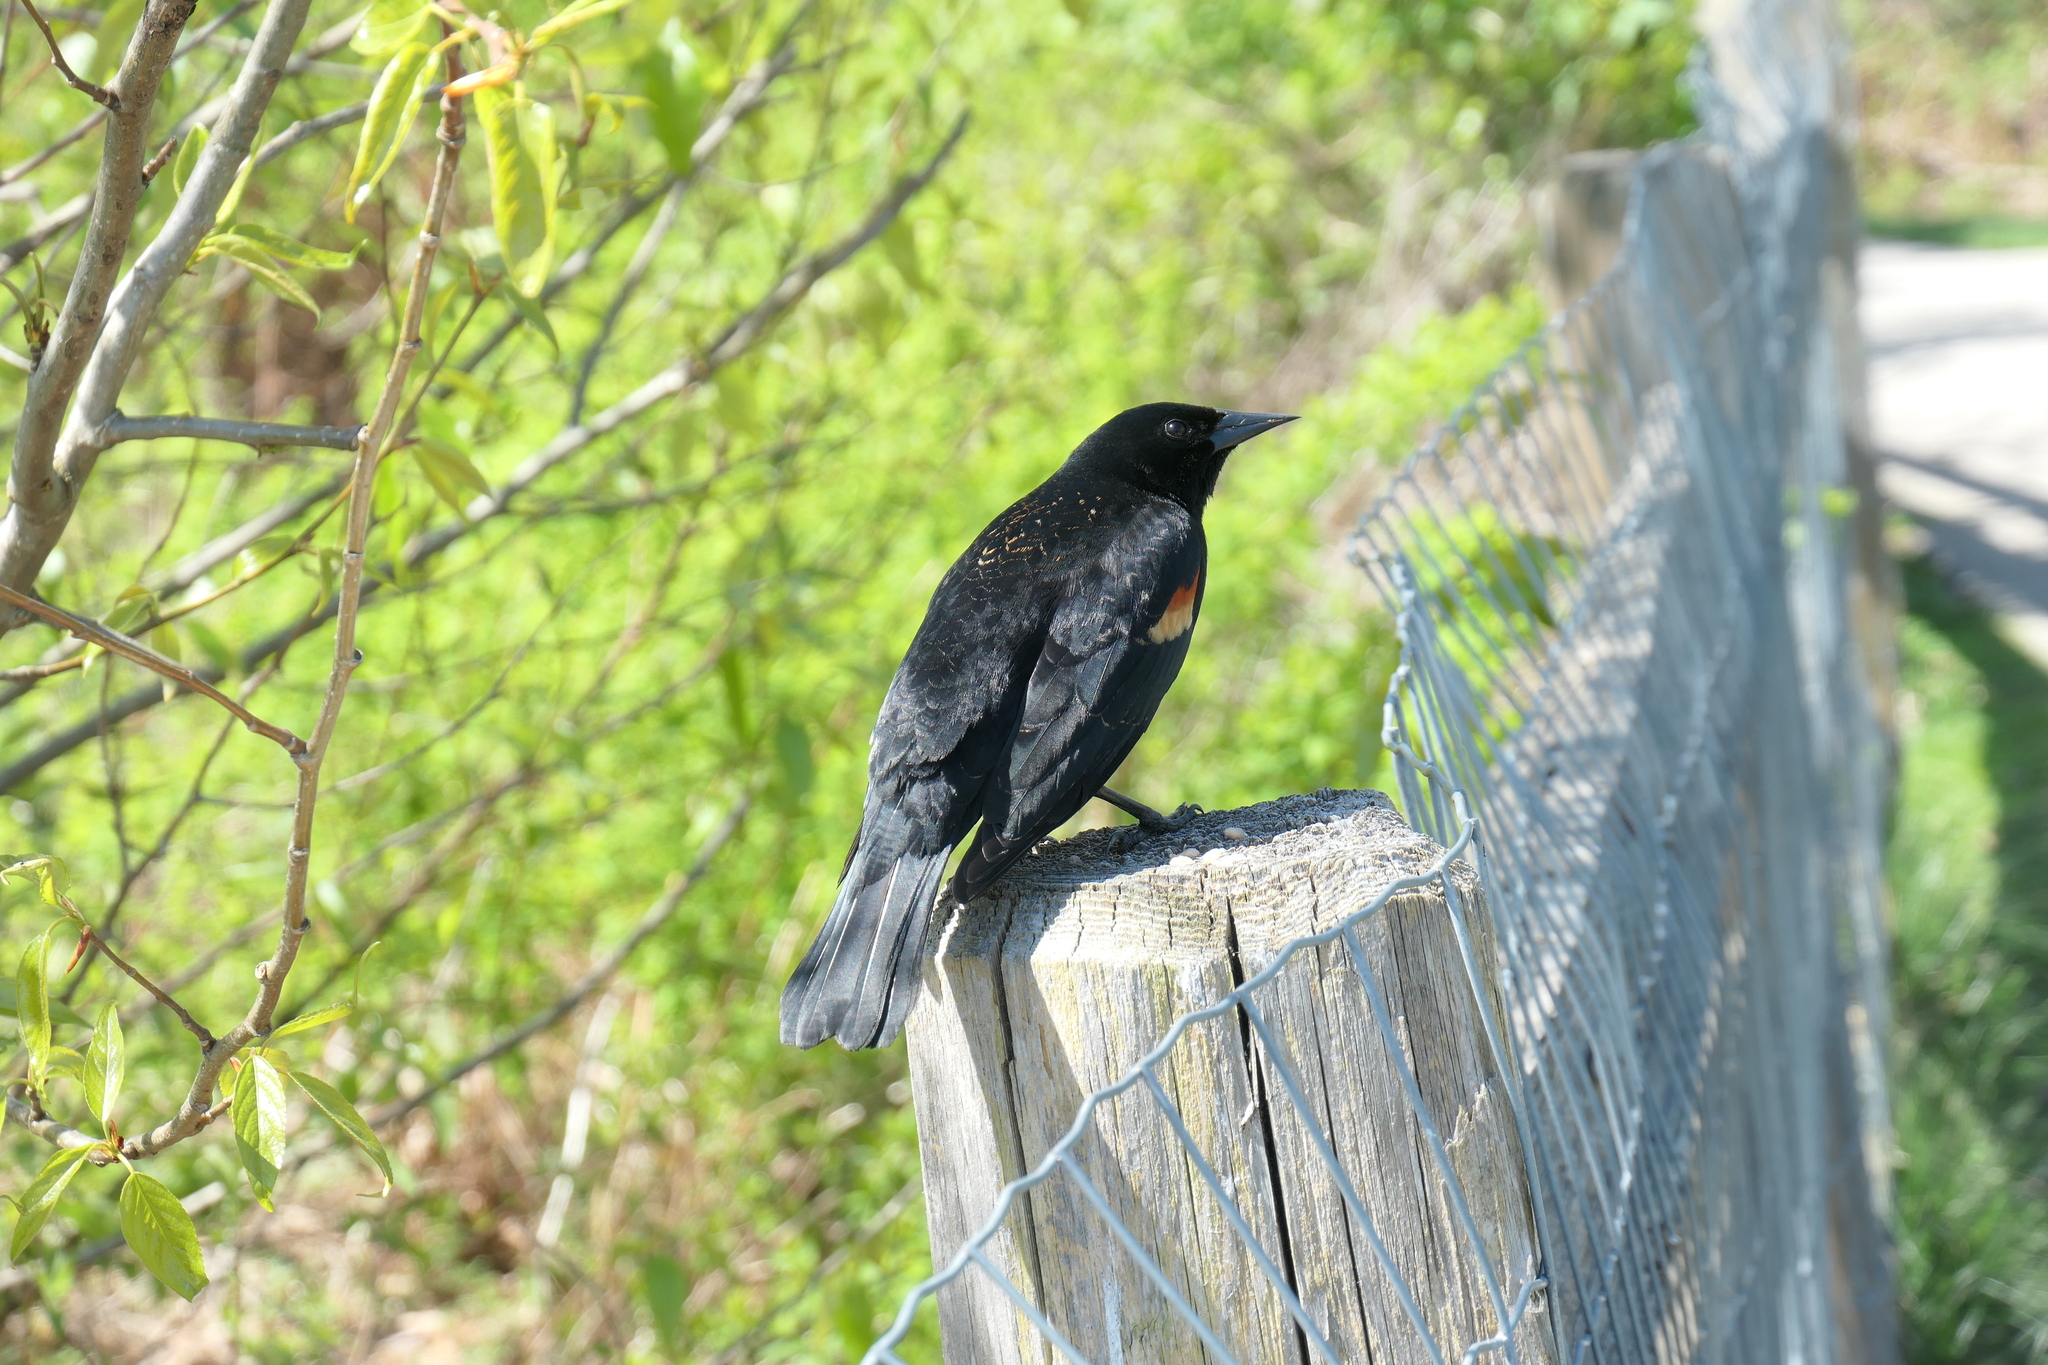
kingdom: Animalia
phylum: Chordata
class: Aves
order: Passeriformes
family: Icteridae
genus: Agelaius
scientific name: Agelaius phoeniceus
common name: Red-winged blackbird
